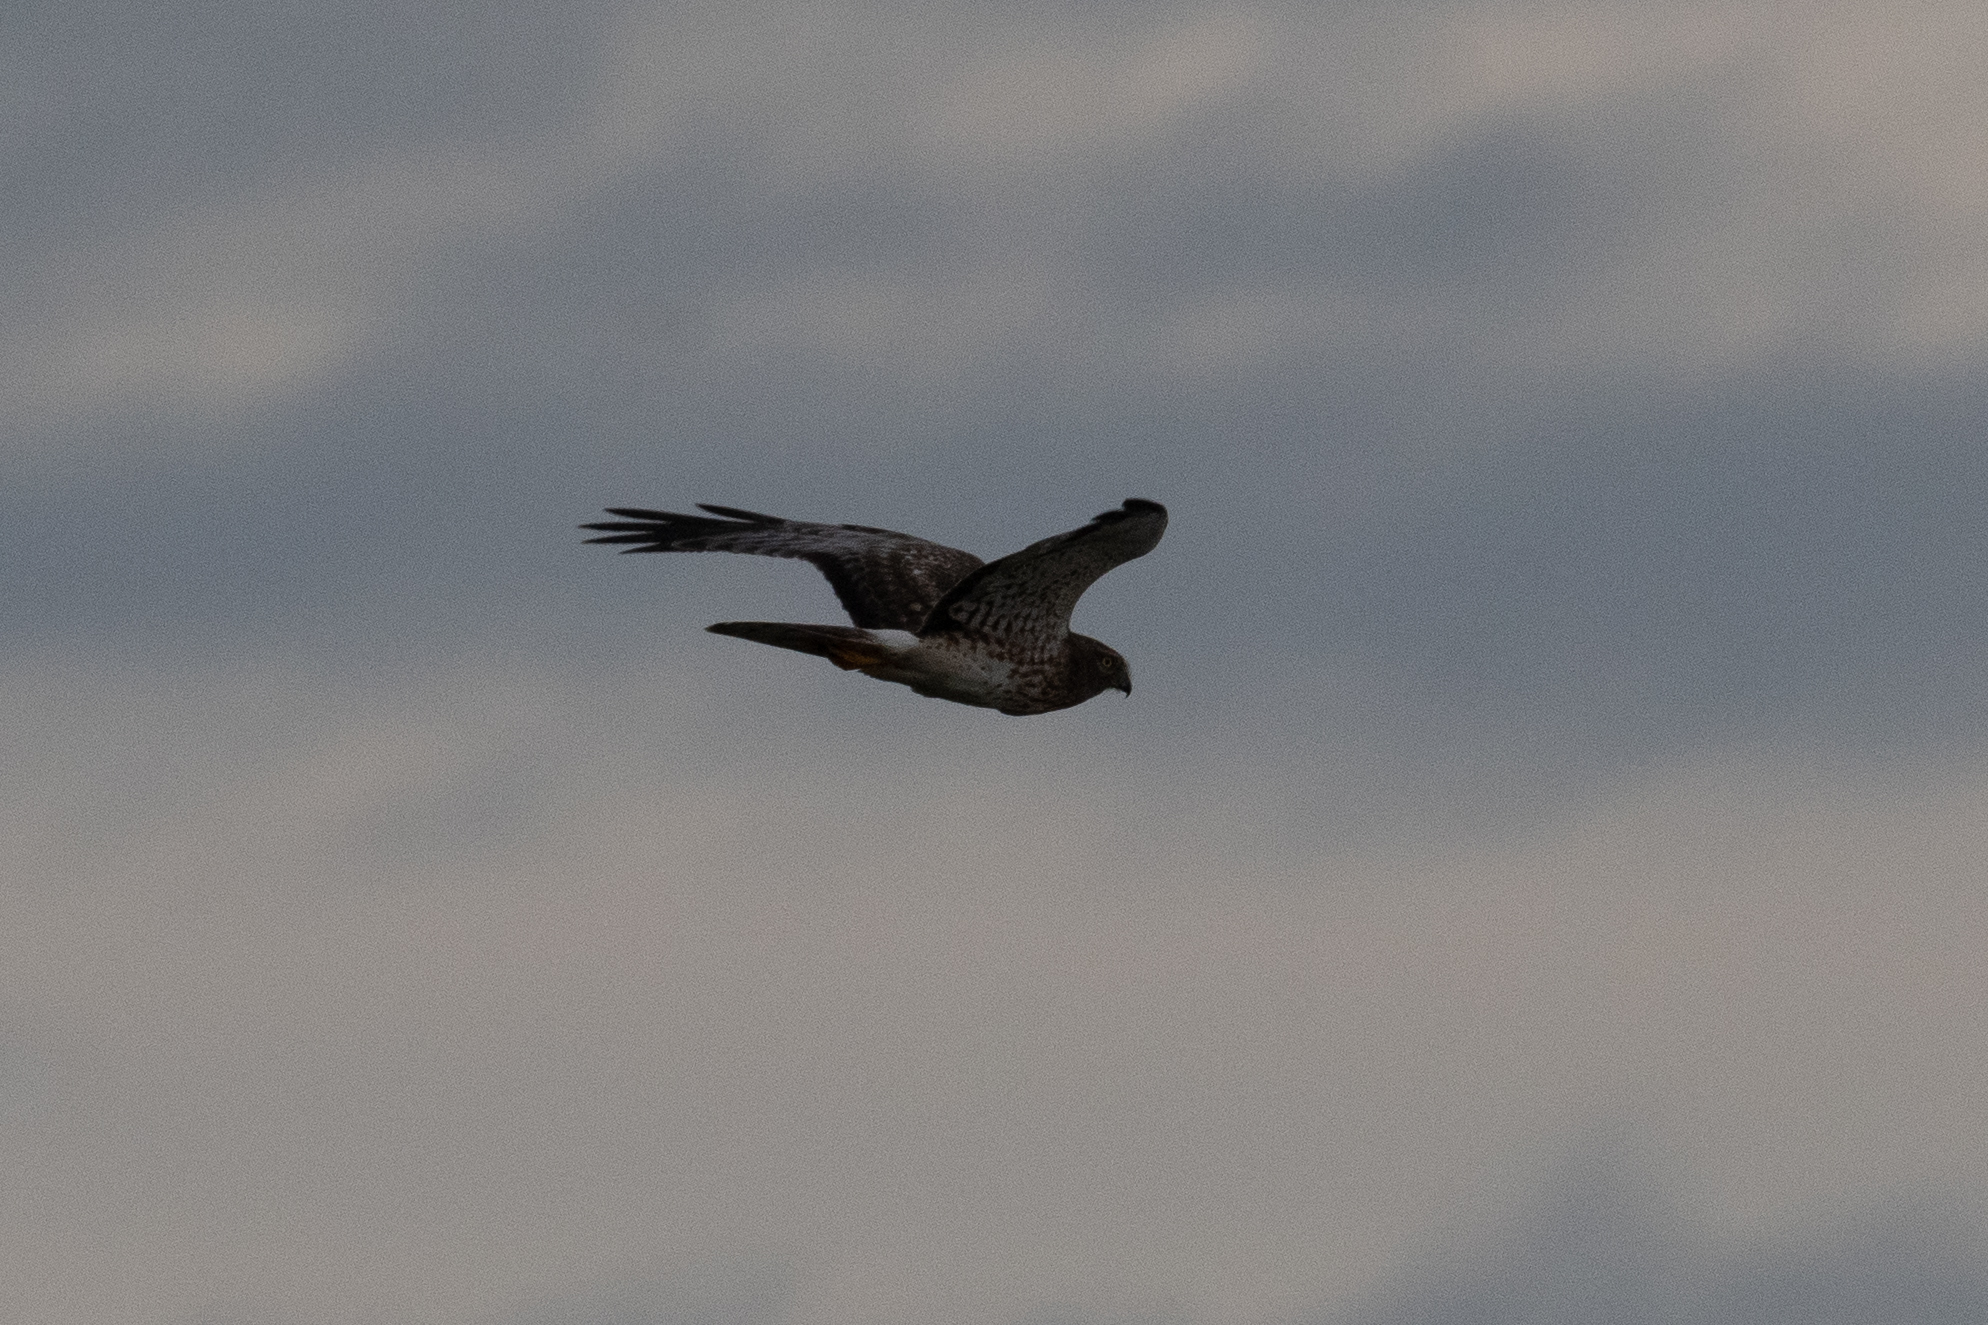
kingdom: Animalia
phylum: Chordata
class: Aves
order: Accipitriformes
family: Accipitridae
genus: Circus
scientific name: Circus cyaneus
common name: Hen harrier
